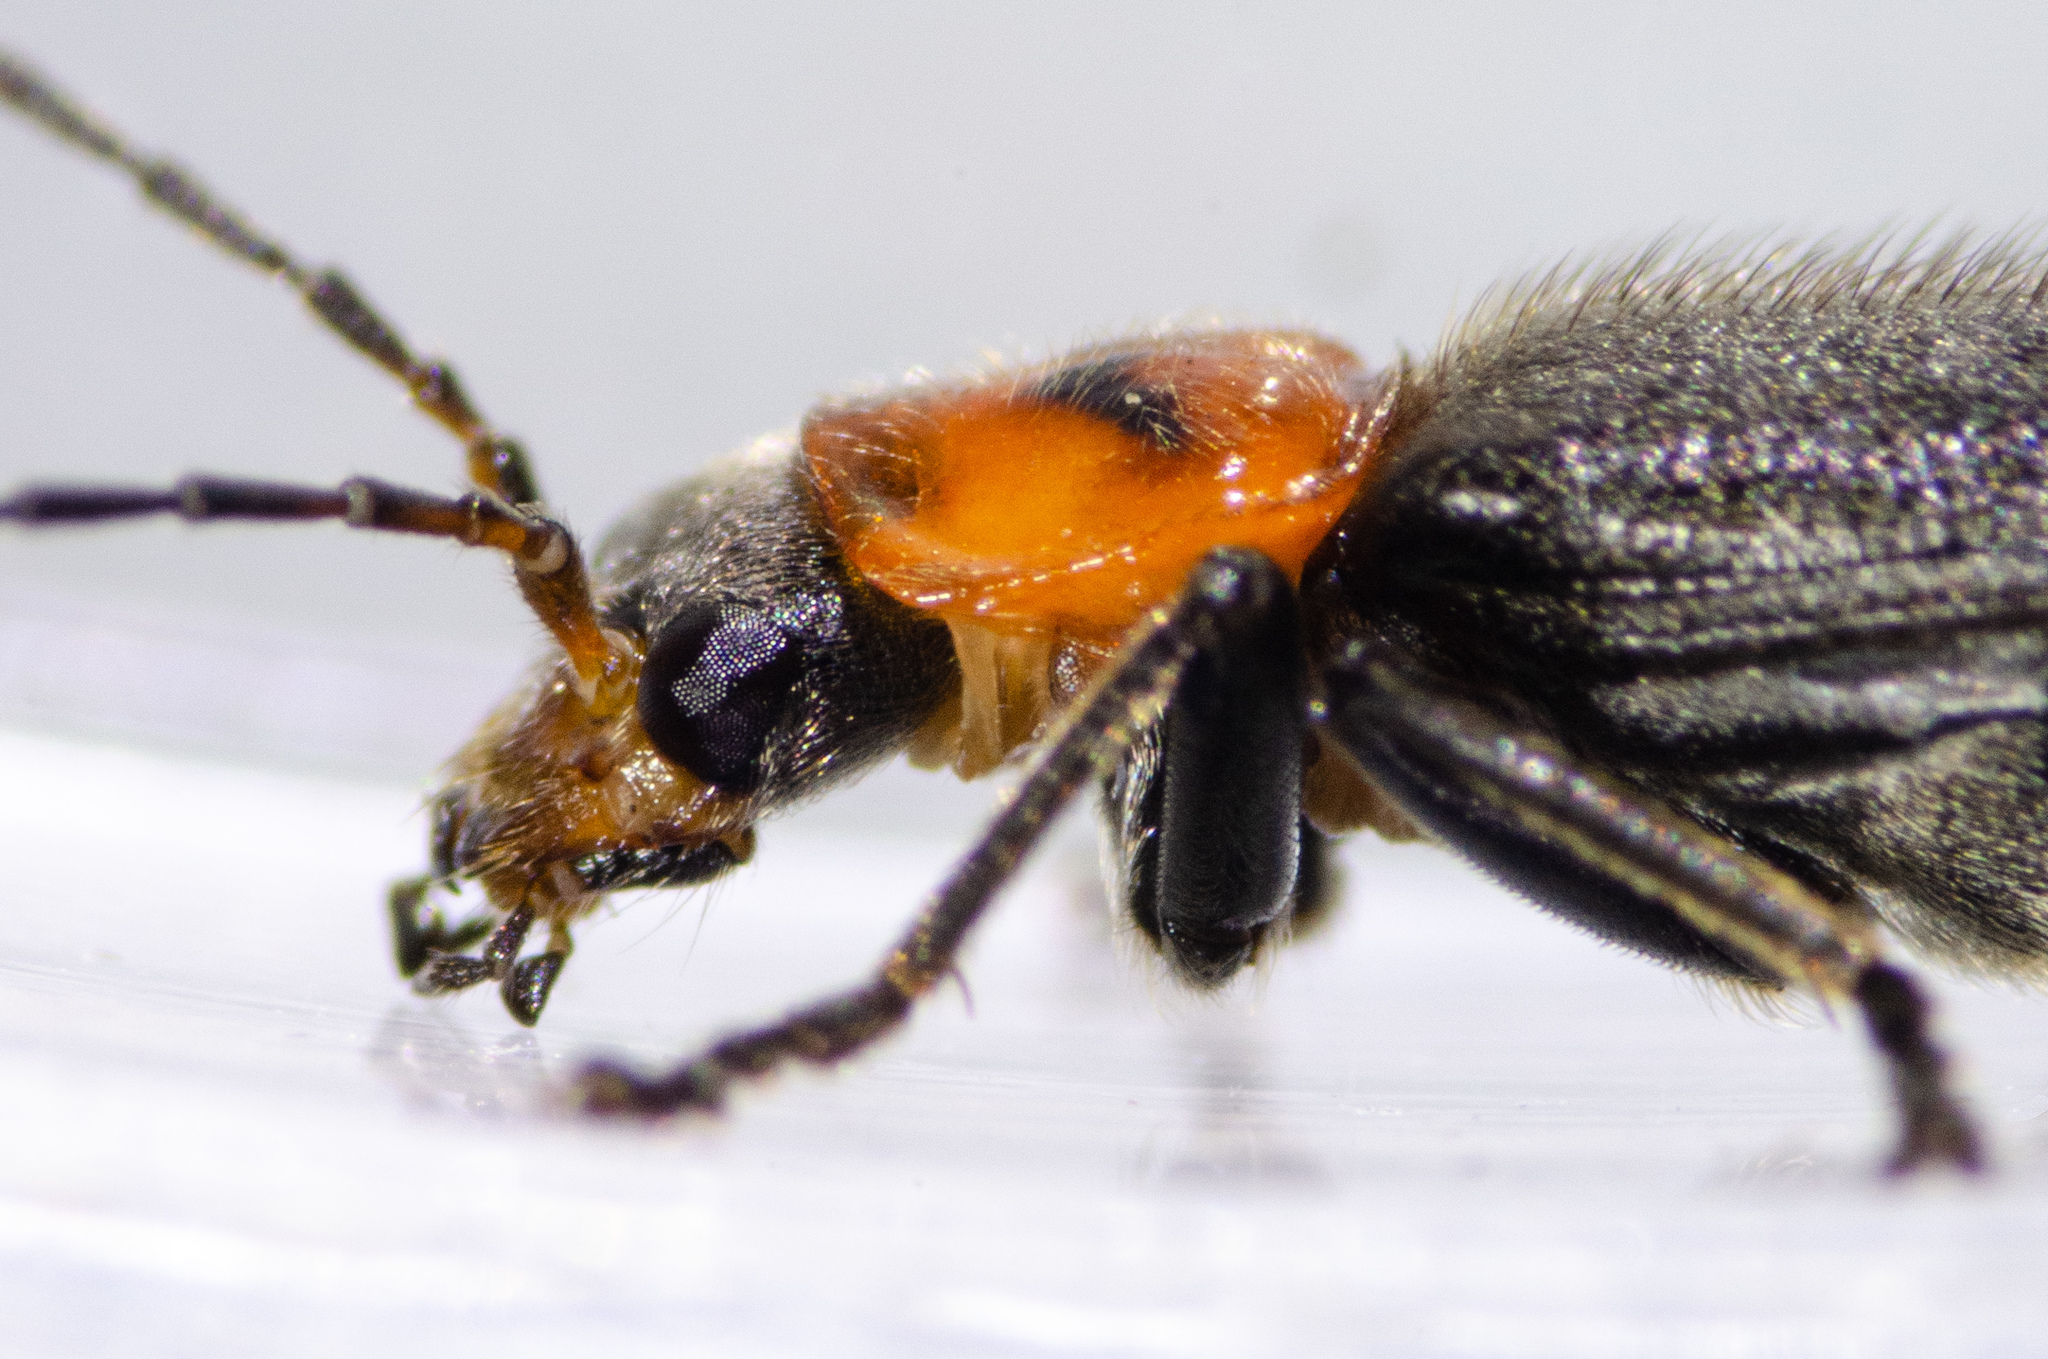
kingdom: Animalia
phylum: Arthropoda
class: Insecta
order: Coleoptera
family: Cantharidae
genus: Cyrtomoptera
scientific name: Cyrtomoptera divisa
